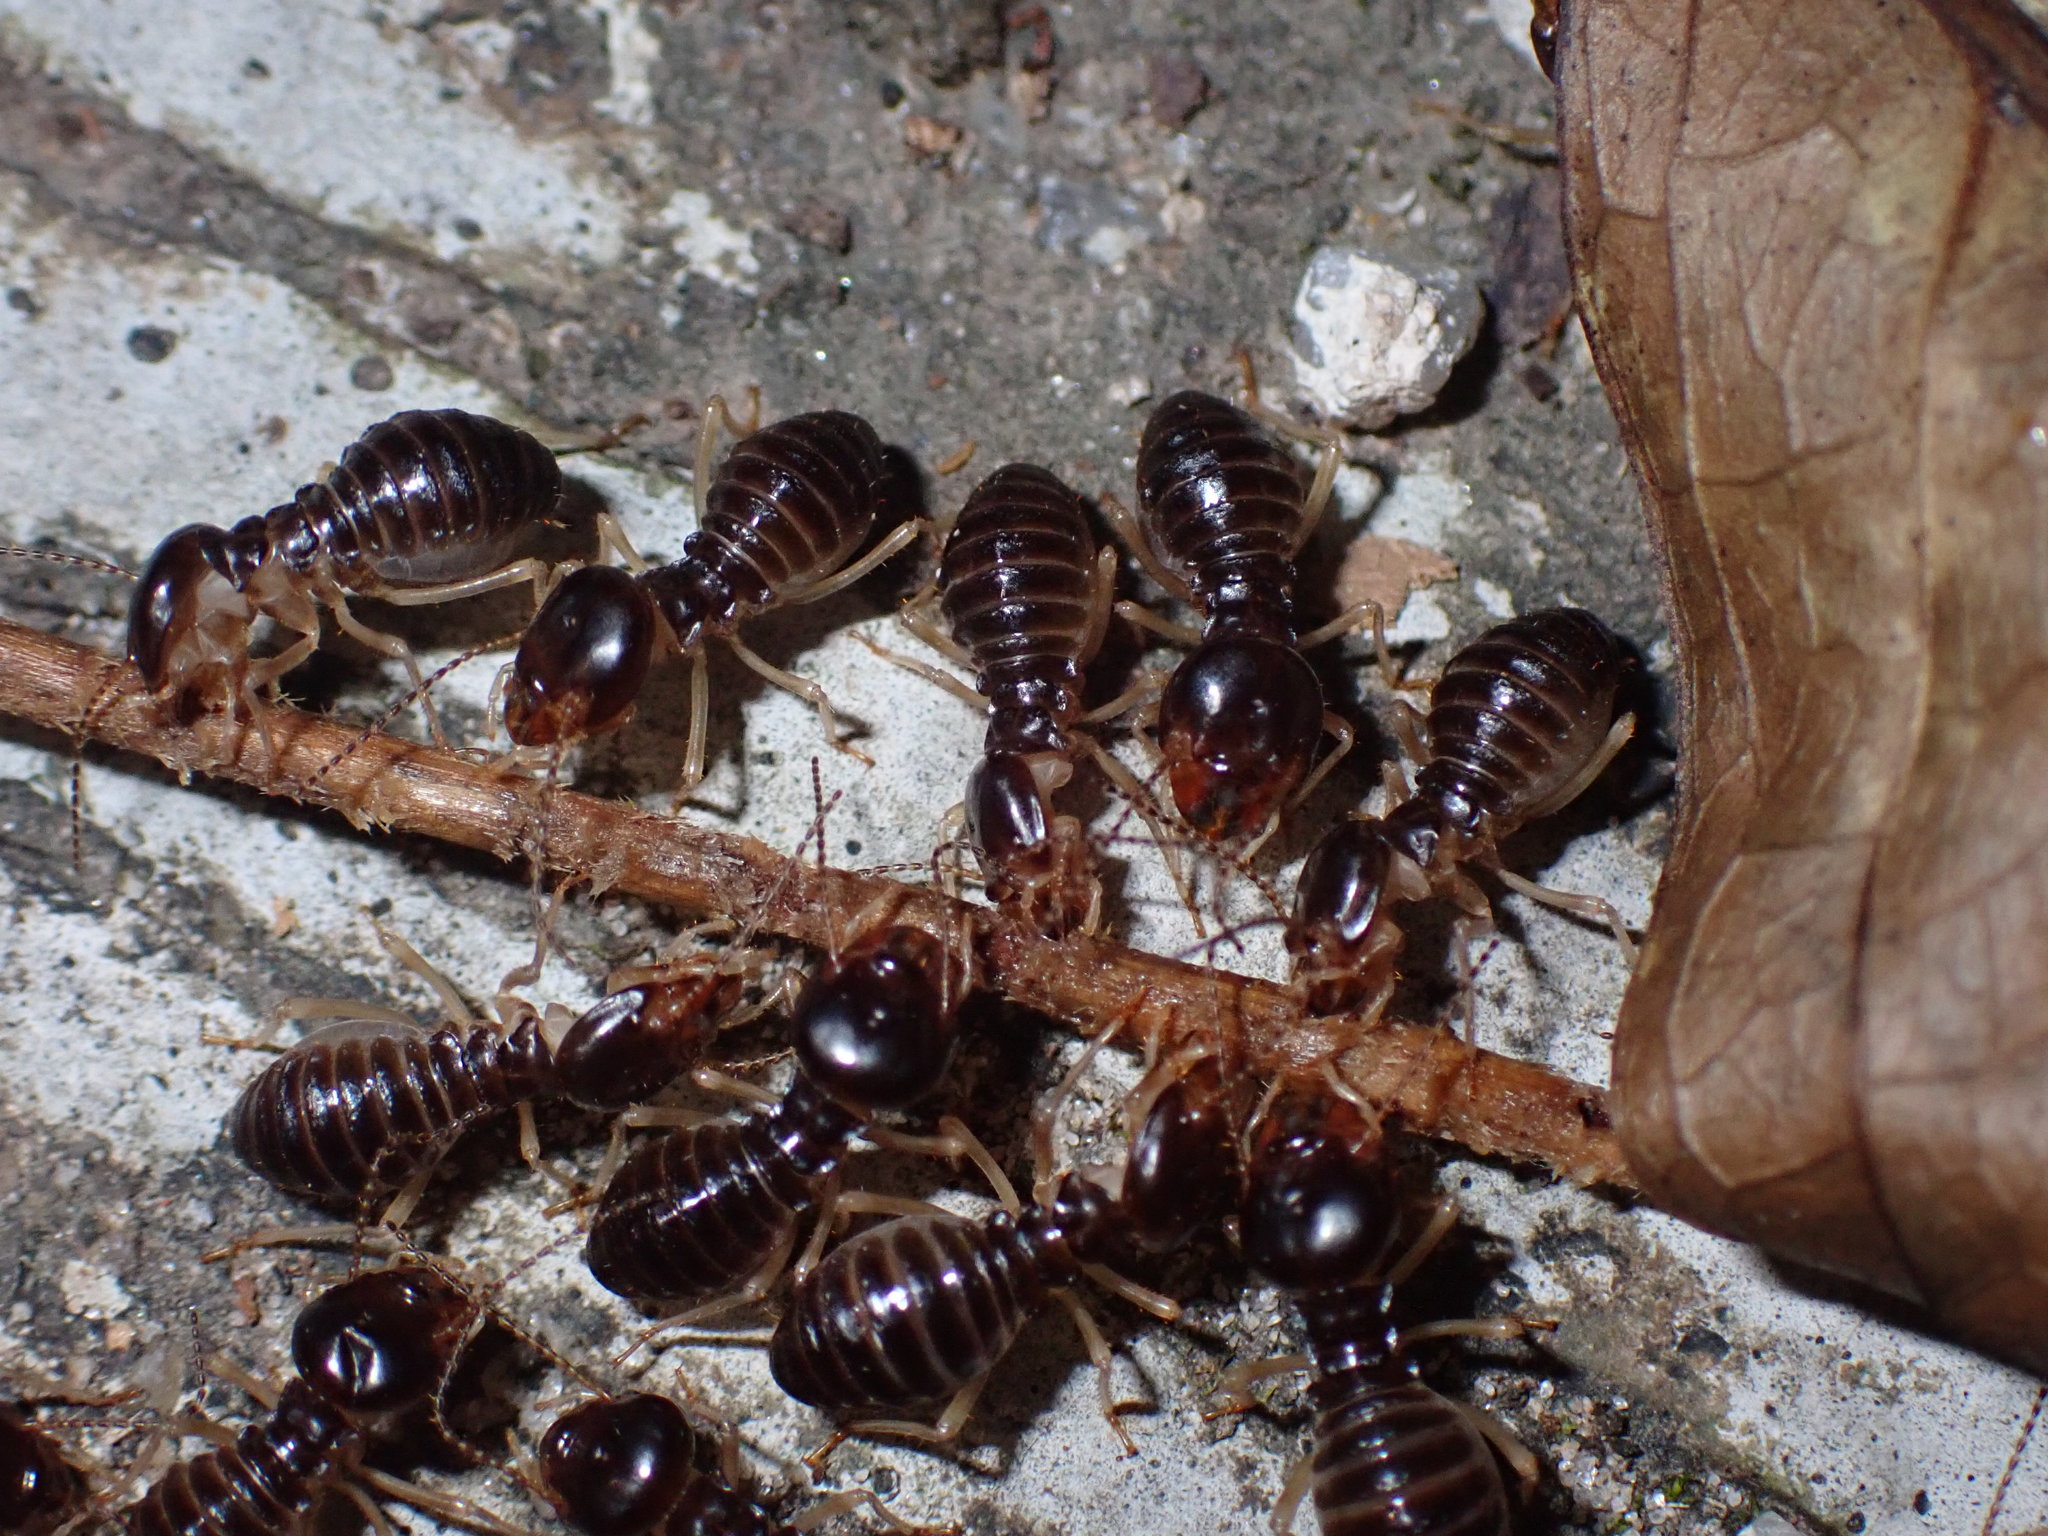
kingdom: Animalia
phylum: Arthropoda
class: Insecta
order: Blattodea
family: Termitidae
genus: Macrotermes
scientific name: Macrotermes carbonarius
